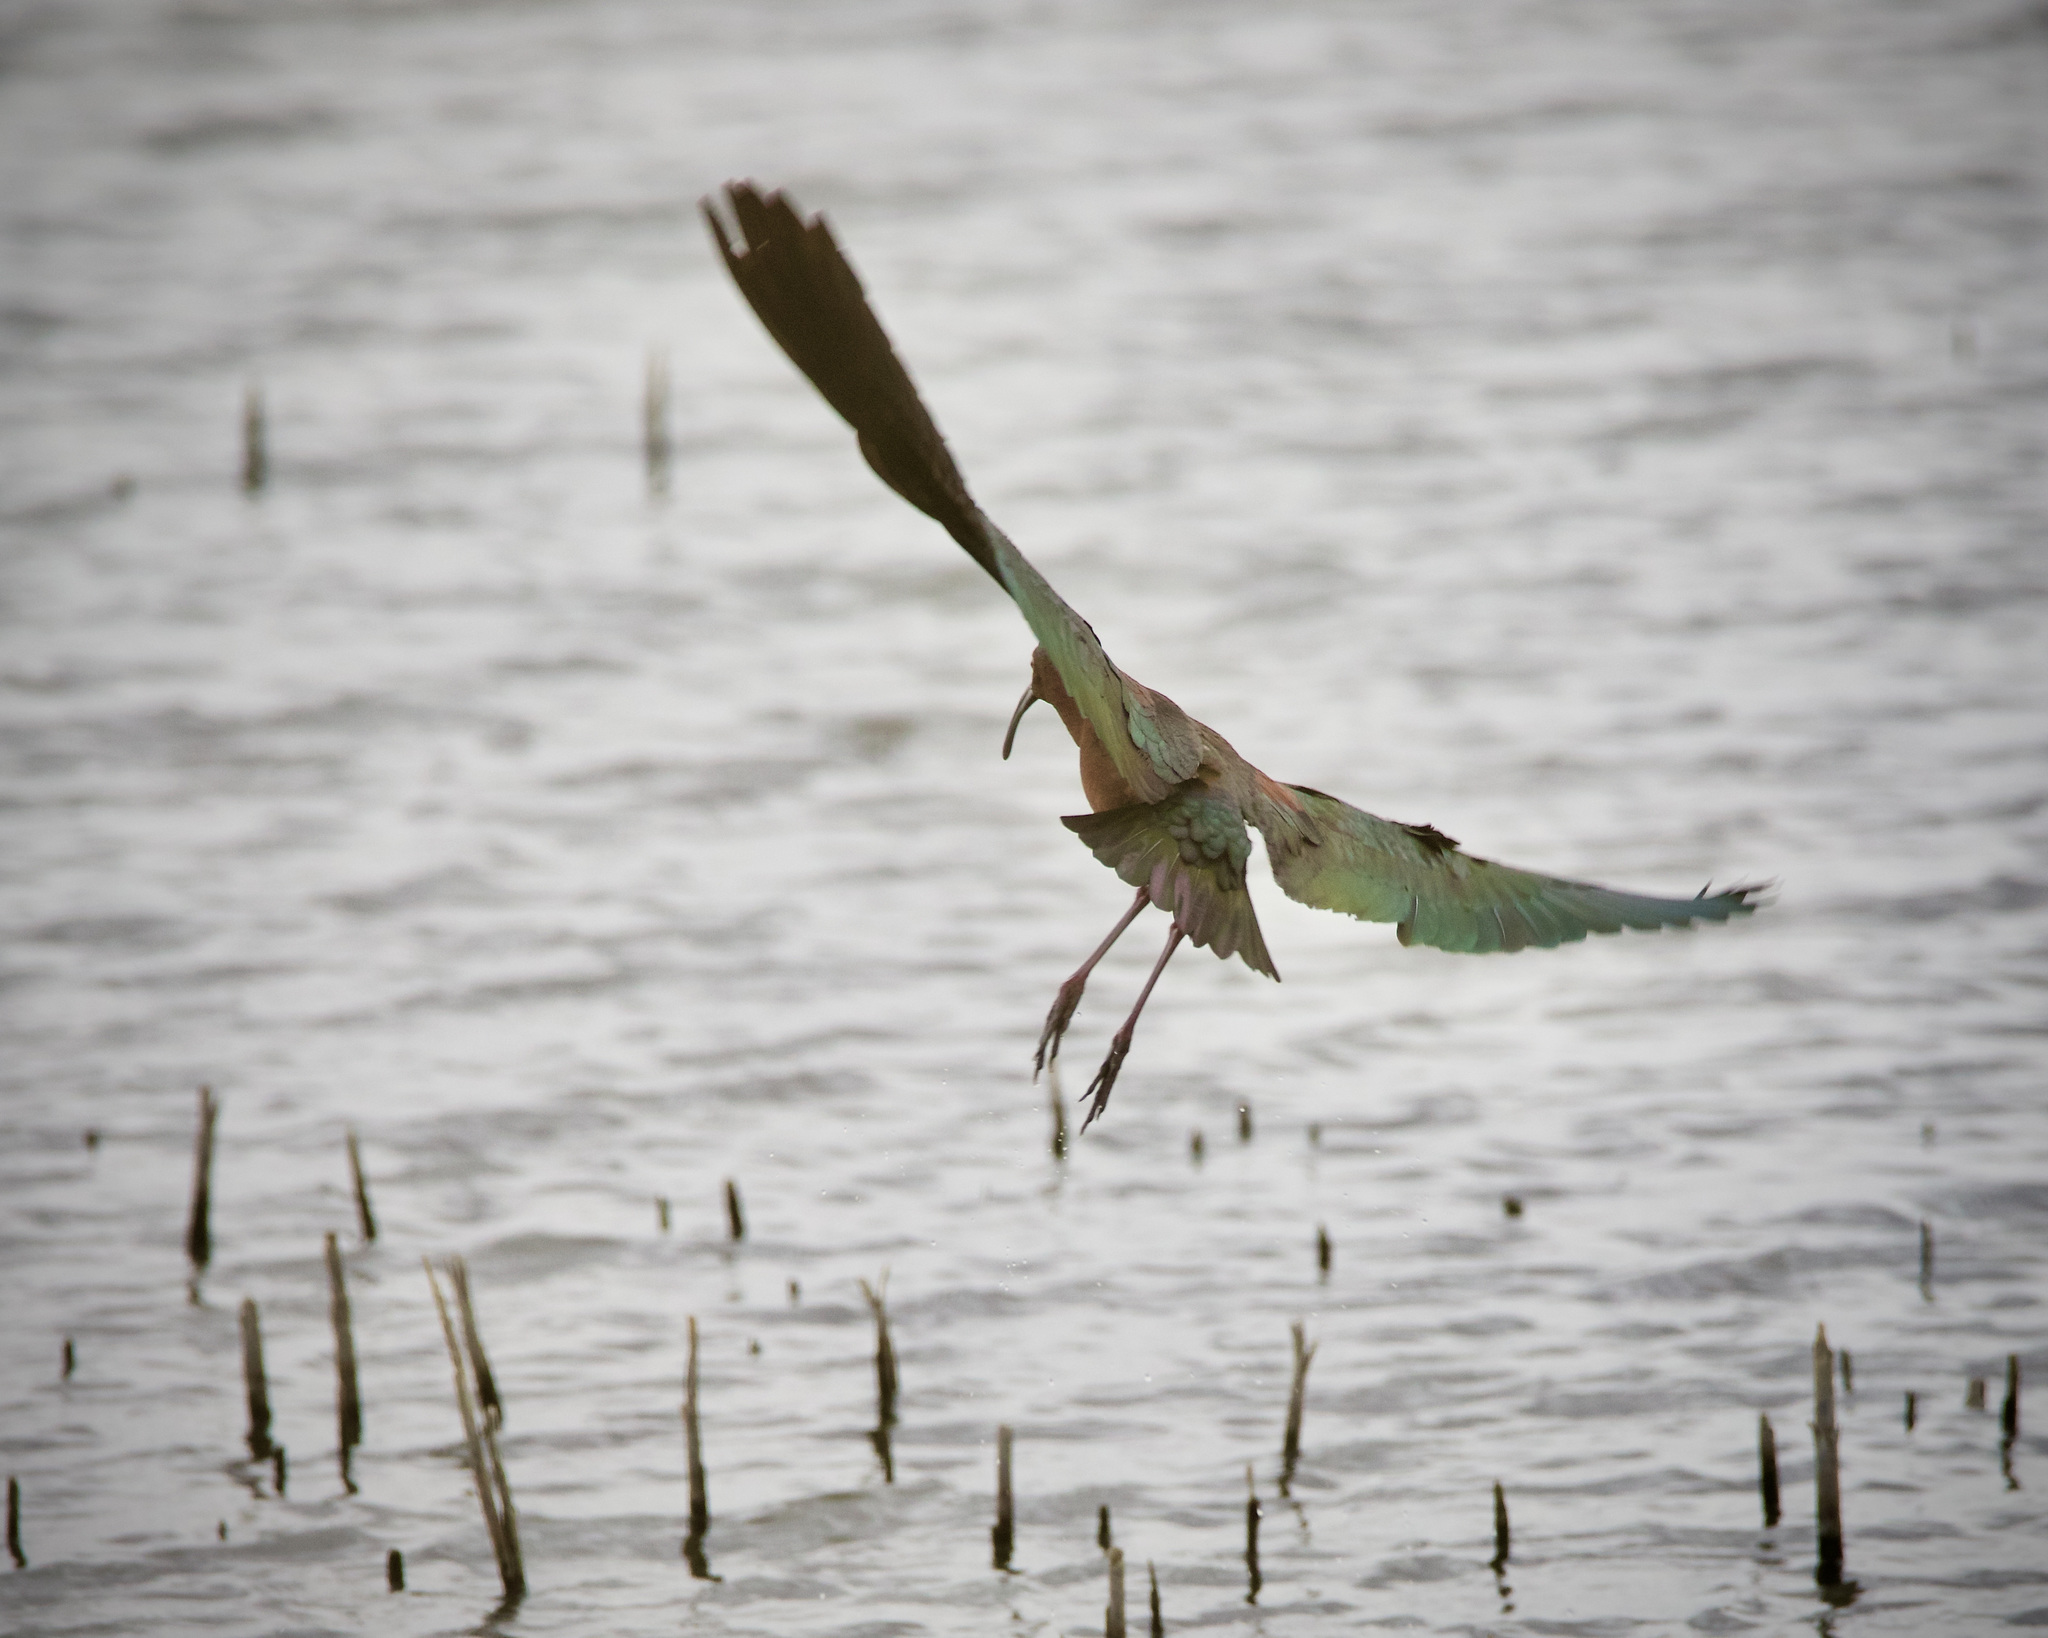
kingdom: Animalia
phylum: Chordata
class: Aves
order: Pelecaniformes
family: Threskiornithidae
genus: Plegadis
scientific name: Plegadis chihi
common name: White-faced ibis
